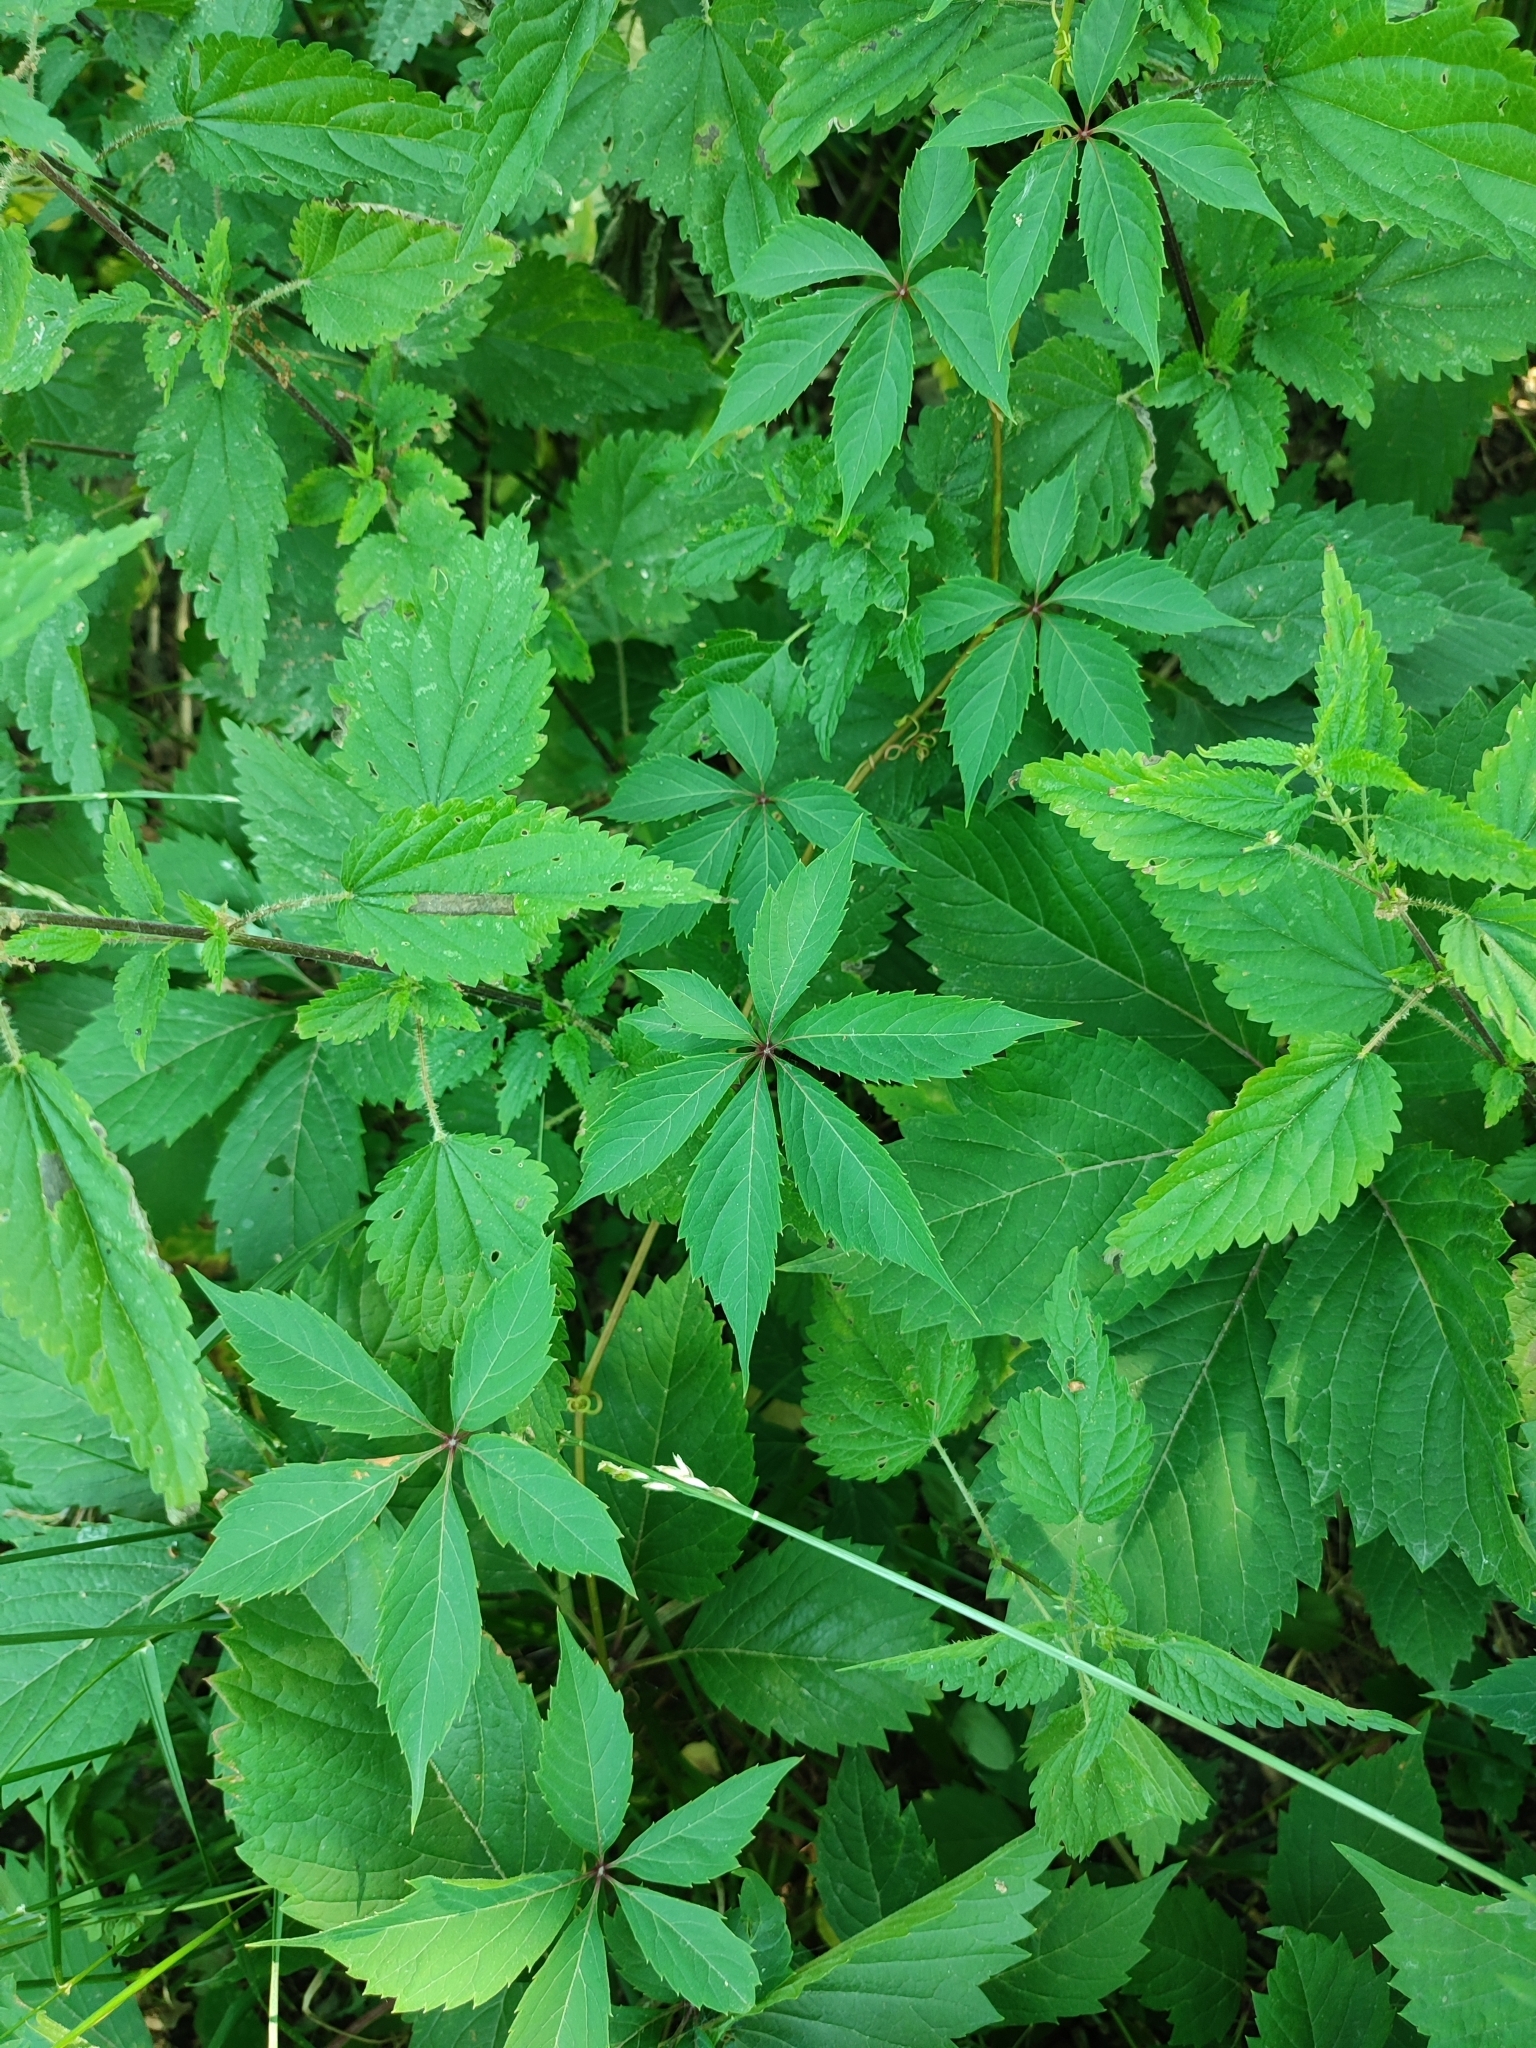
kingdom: Plantae
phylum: Tracheophyta
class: Magnoliopsida
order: Vitales
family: Vitaceae
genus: Parthenocissus
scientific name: Parthenocissus inserta
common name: False virginia-creeper
